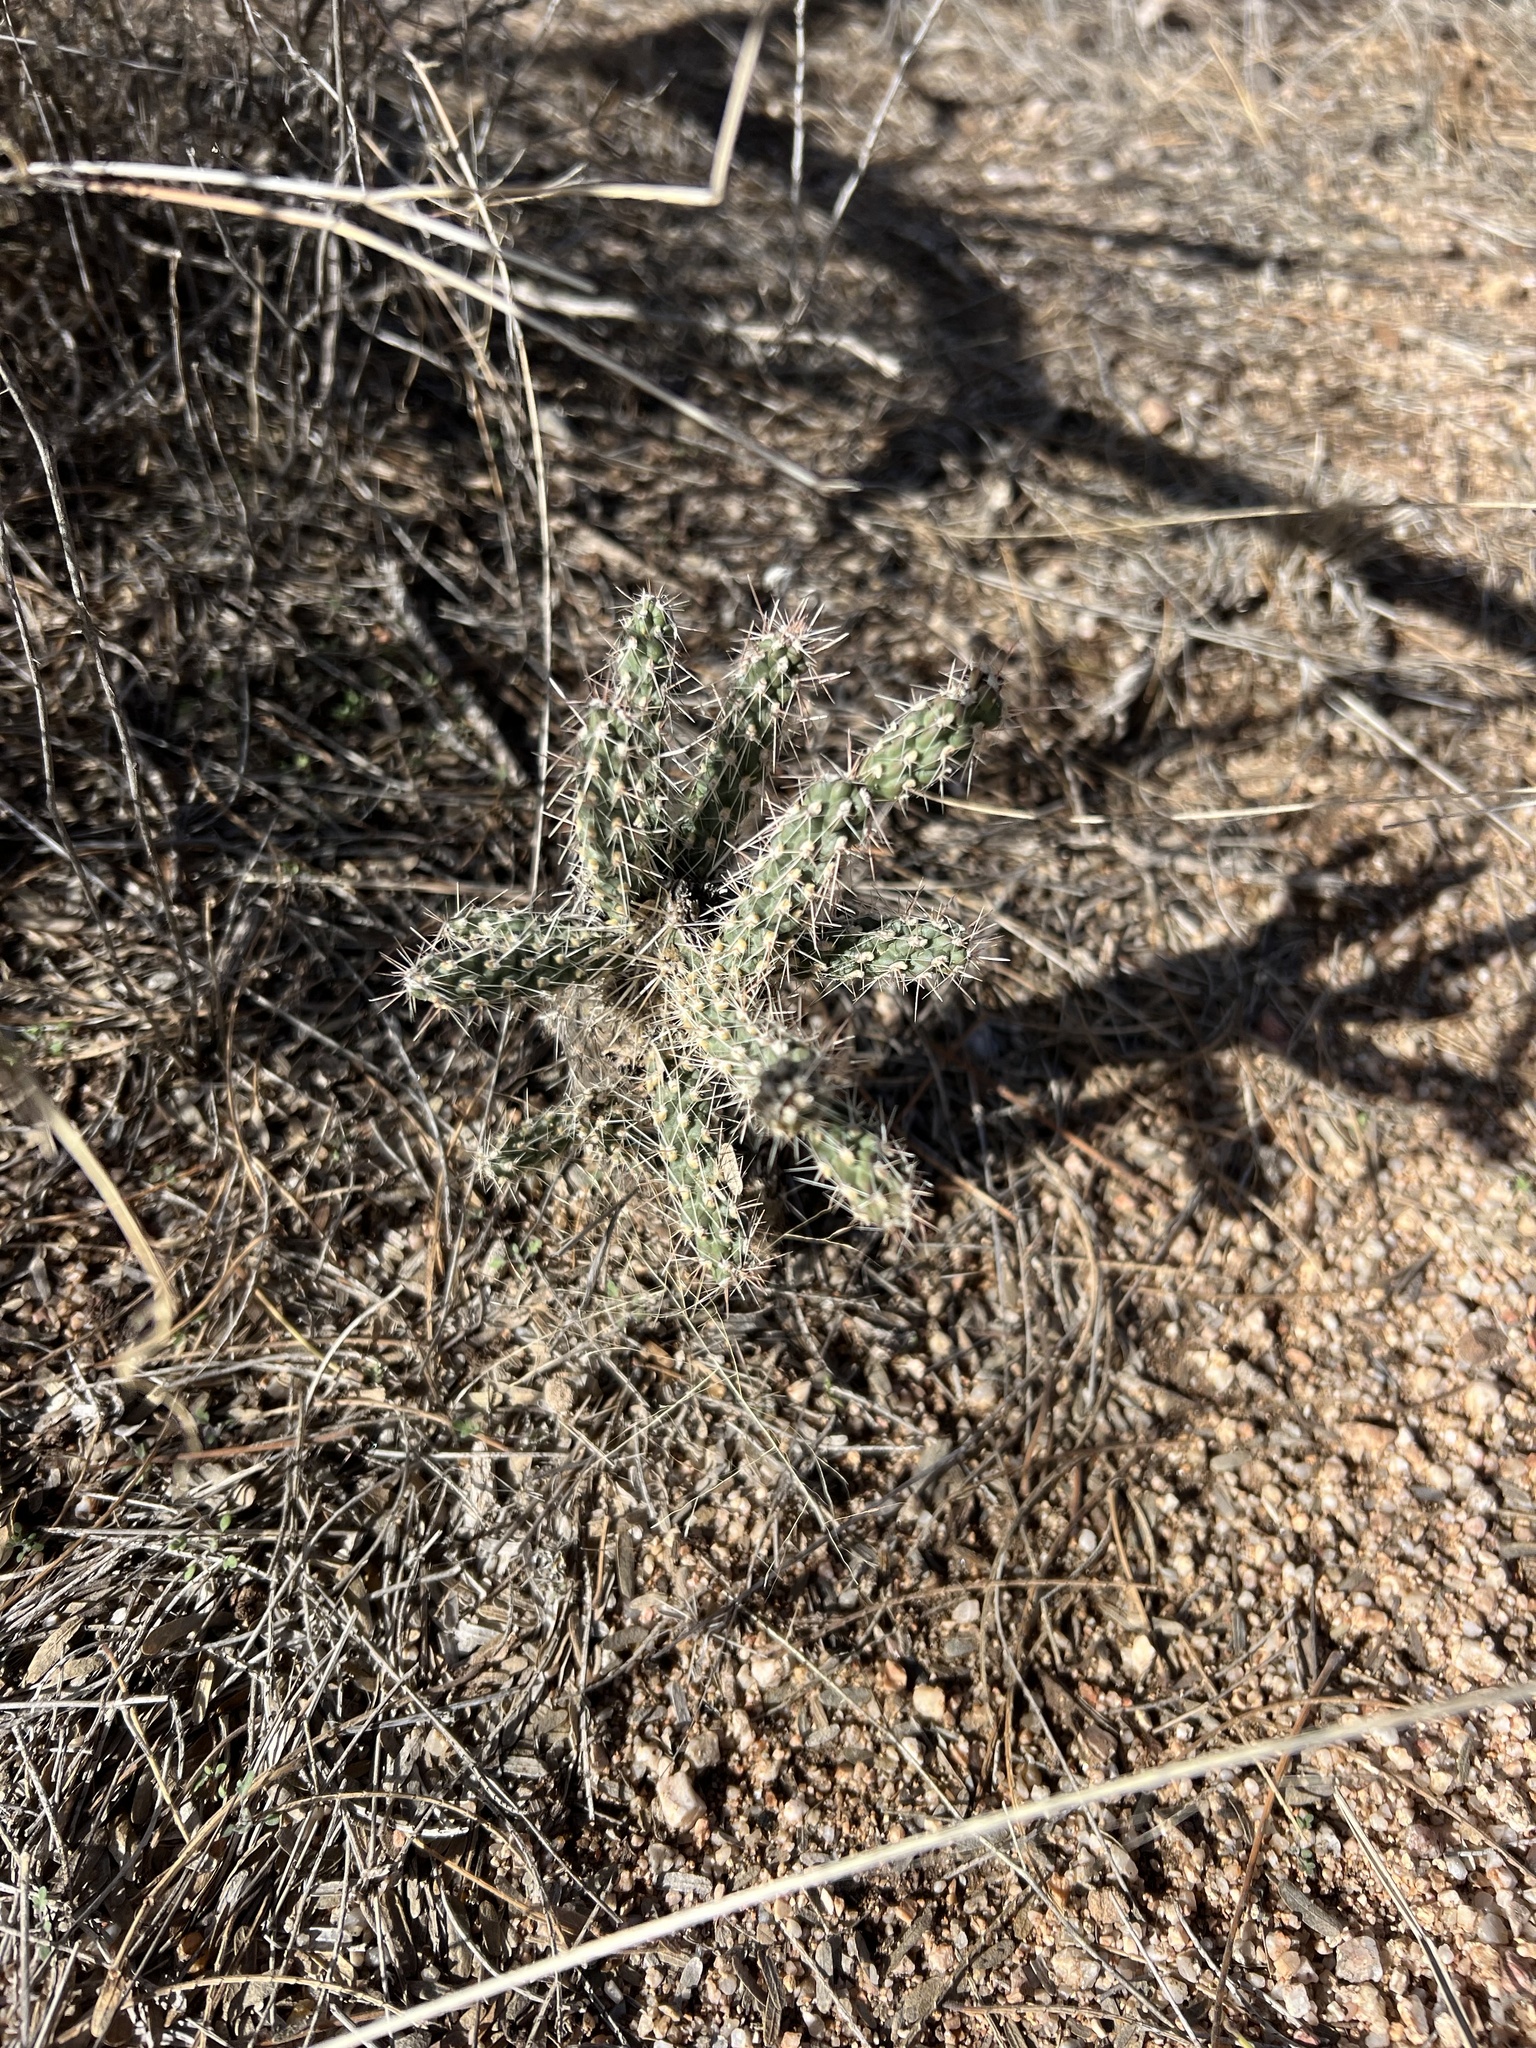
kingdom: Plantae
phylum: Tracheophyta
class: Magnoliopsida
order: Caryophyllales
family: Cactaceae
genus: Cylindropuntia
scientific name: Cylindropuntia imbricata
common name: Candelabrum cactus
